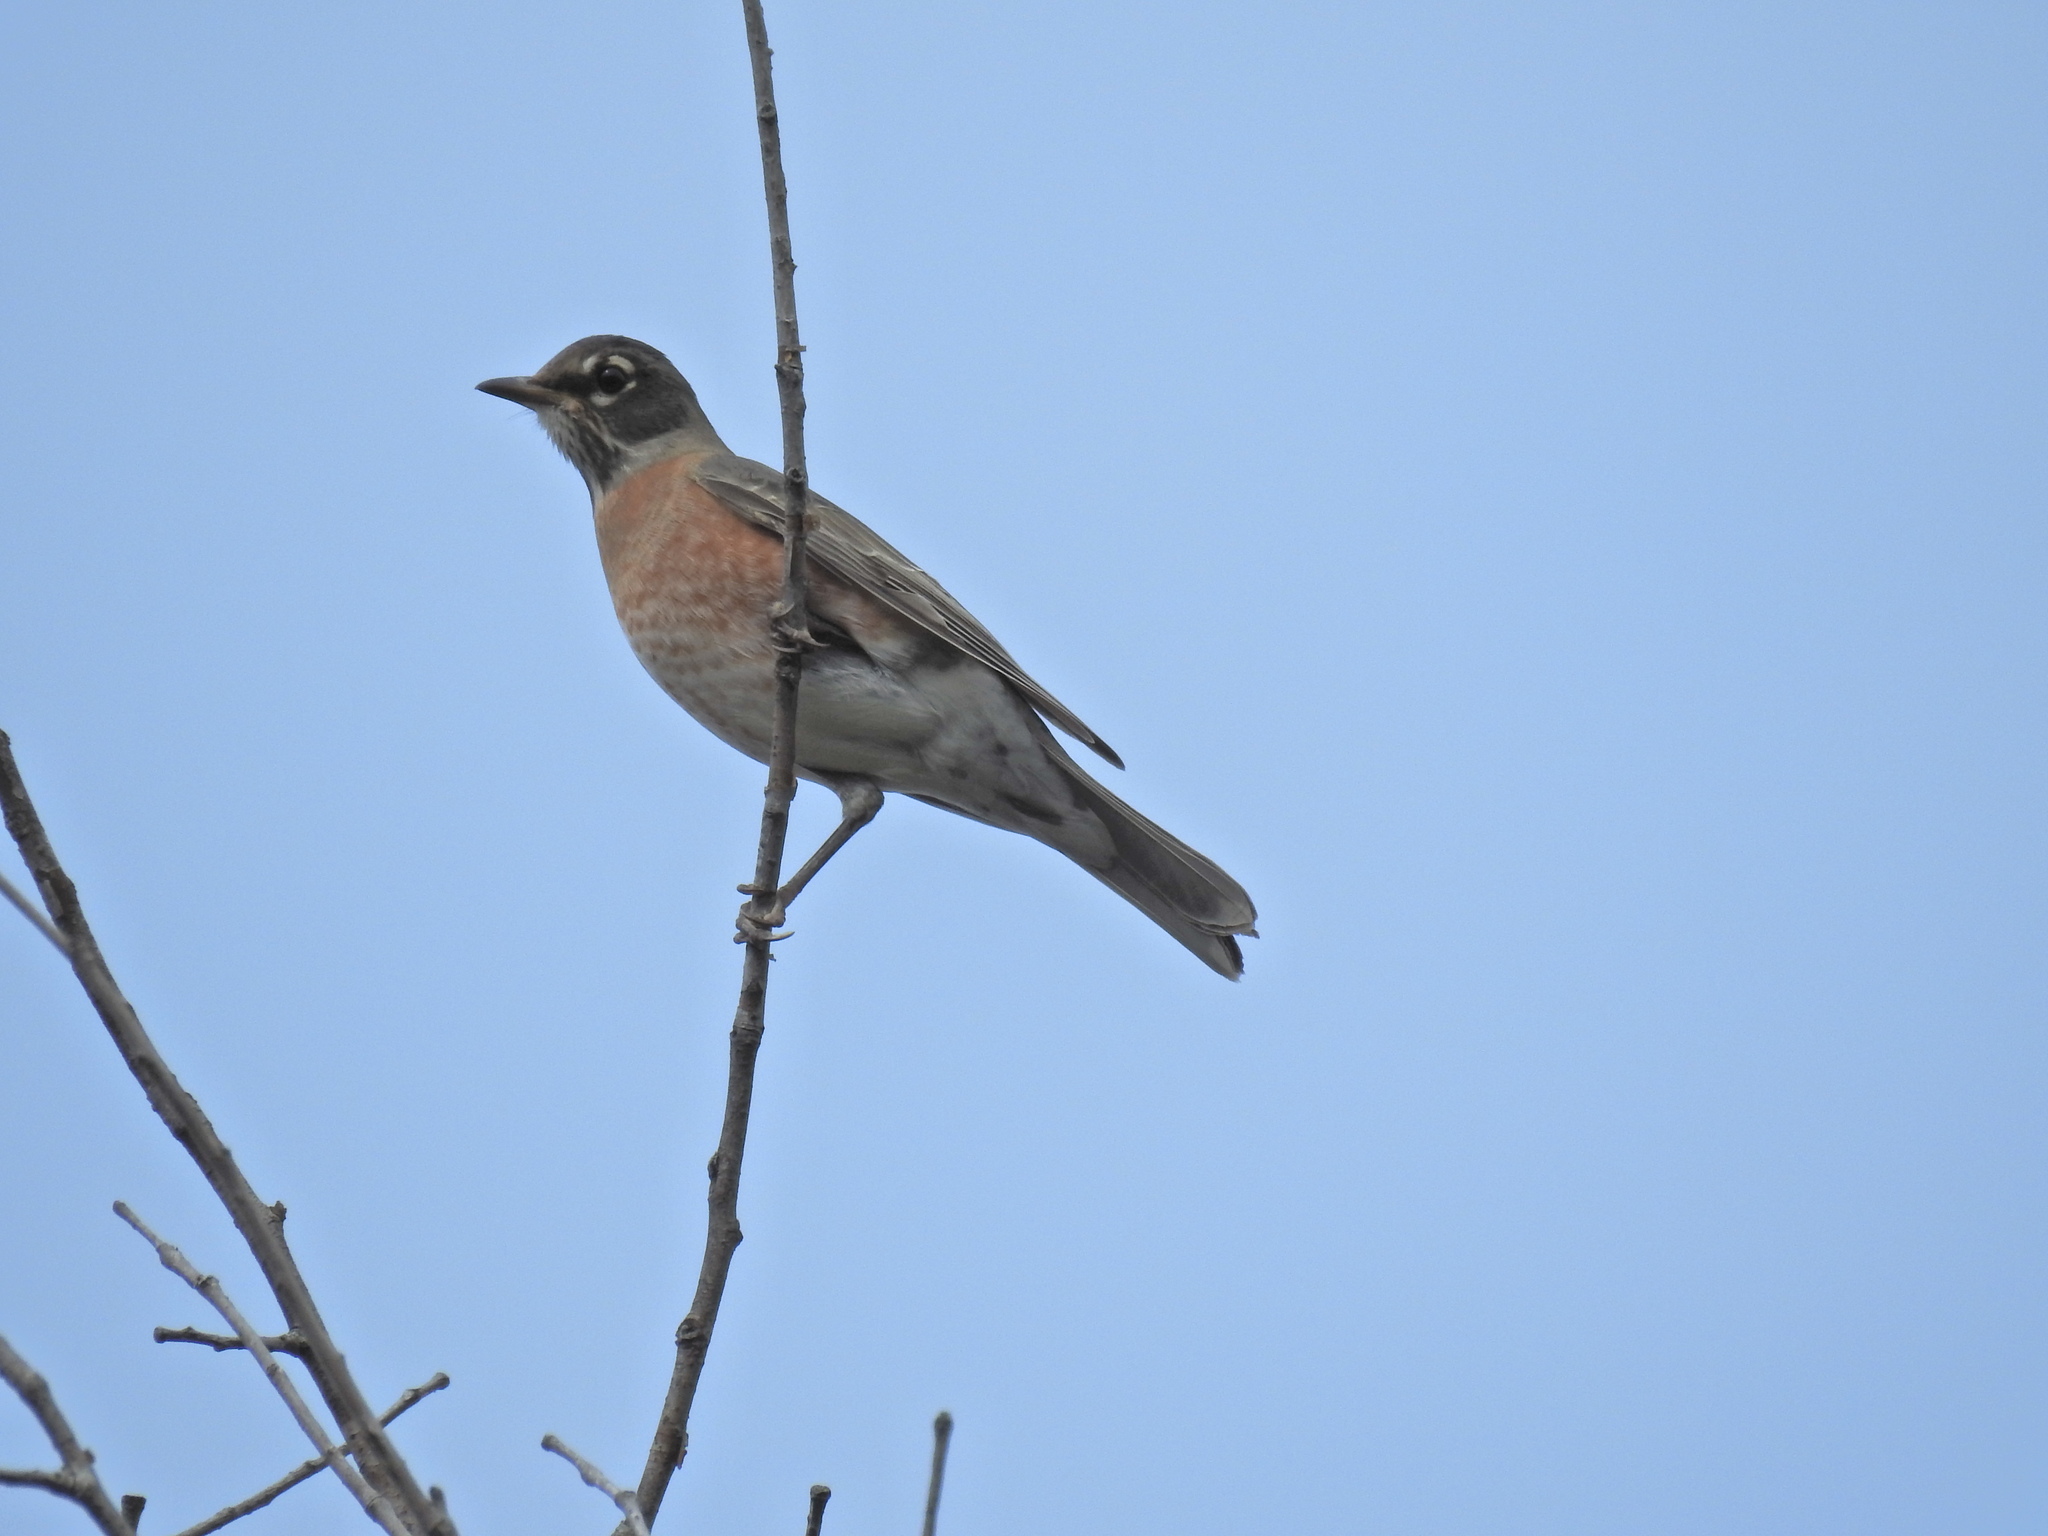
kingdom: Animalia
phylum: Chordata
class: Aves
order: Passeriformes
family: Turdidae
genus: Turdus
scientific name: Turdus migratorius
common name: American robin
